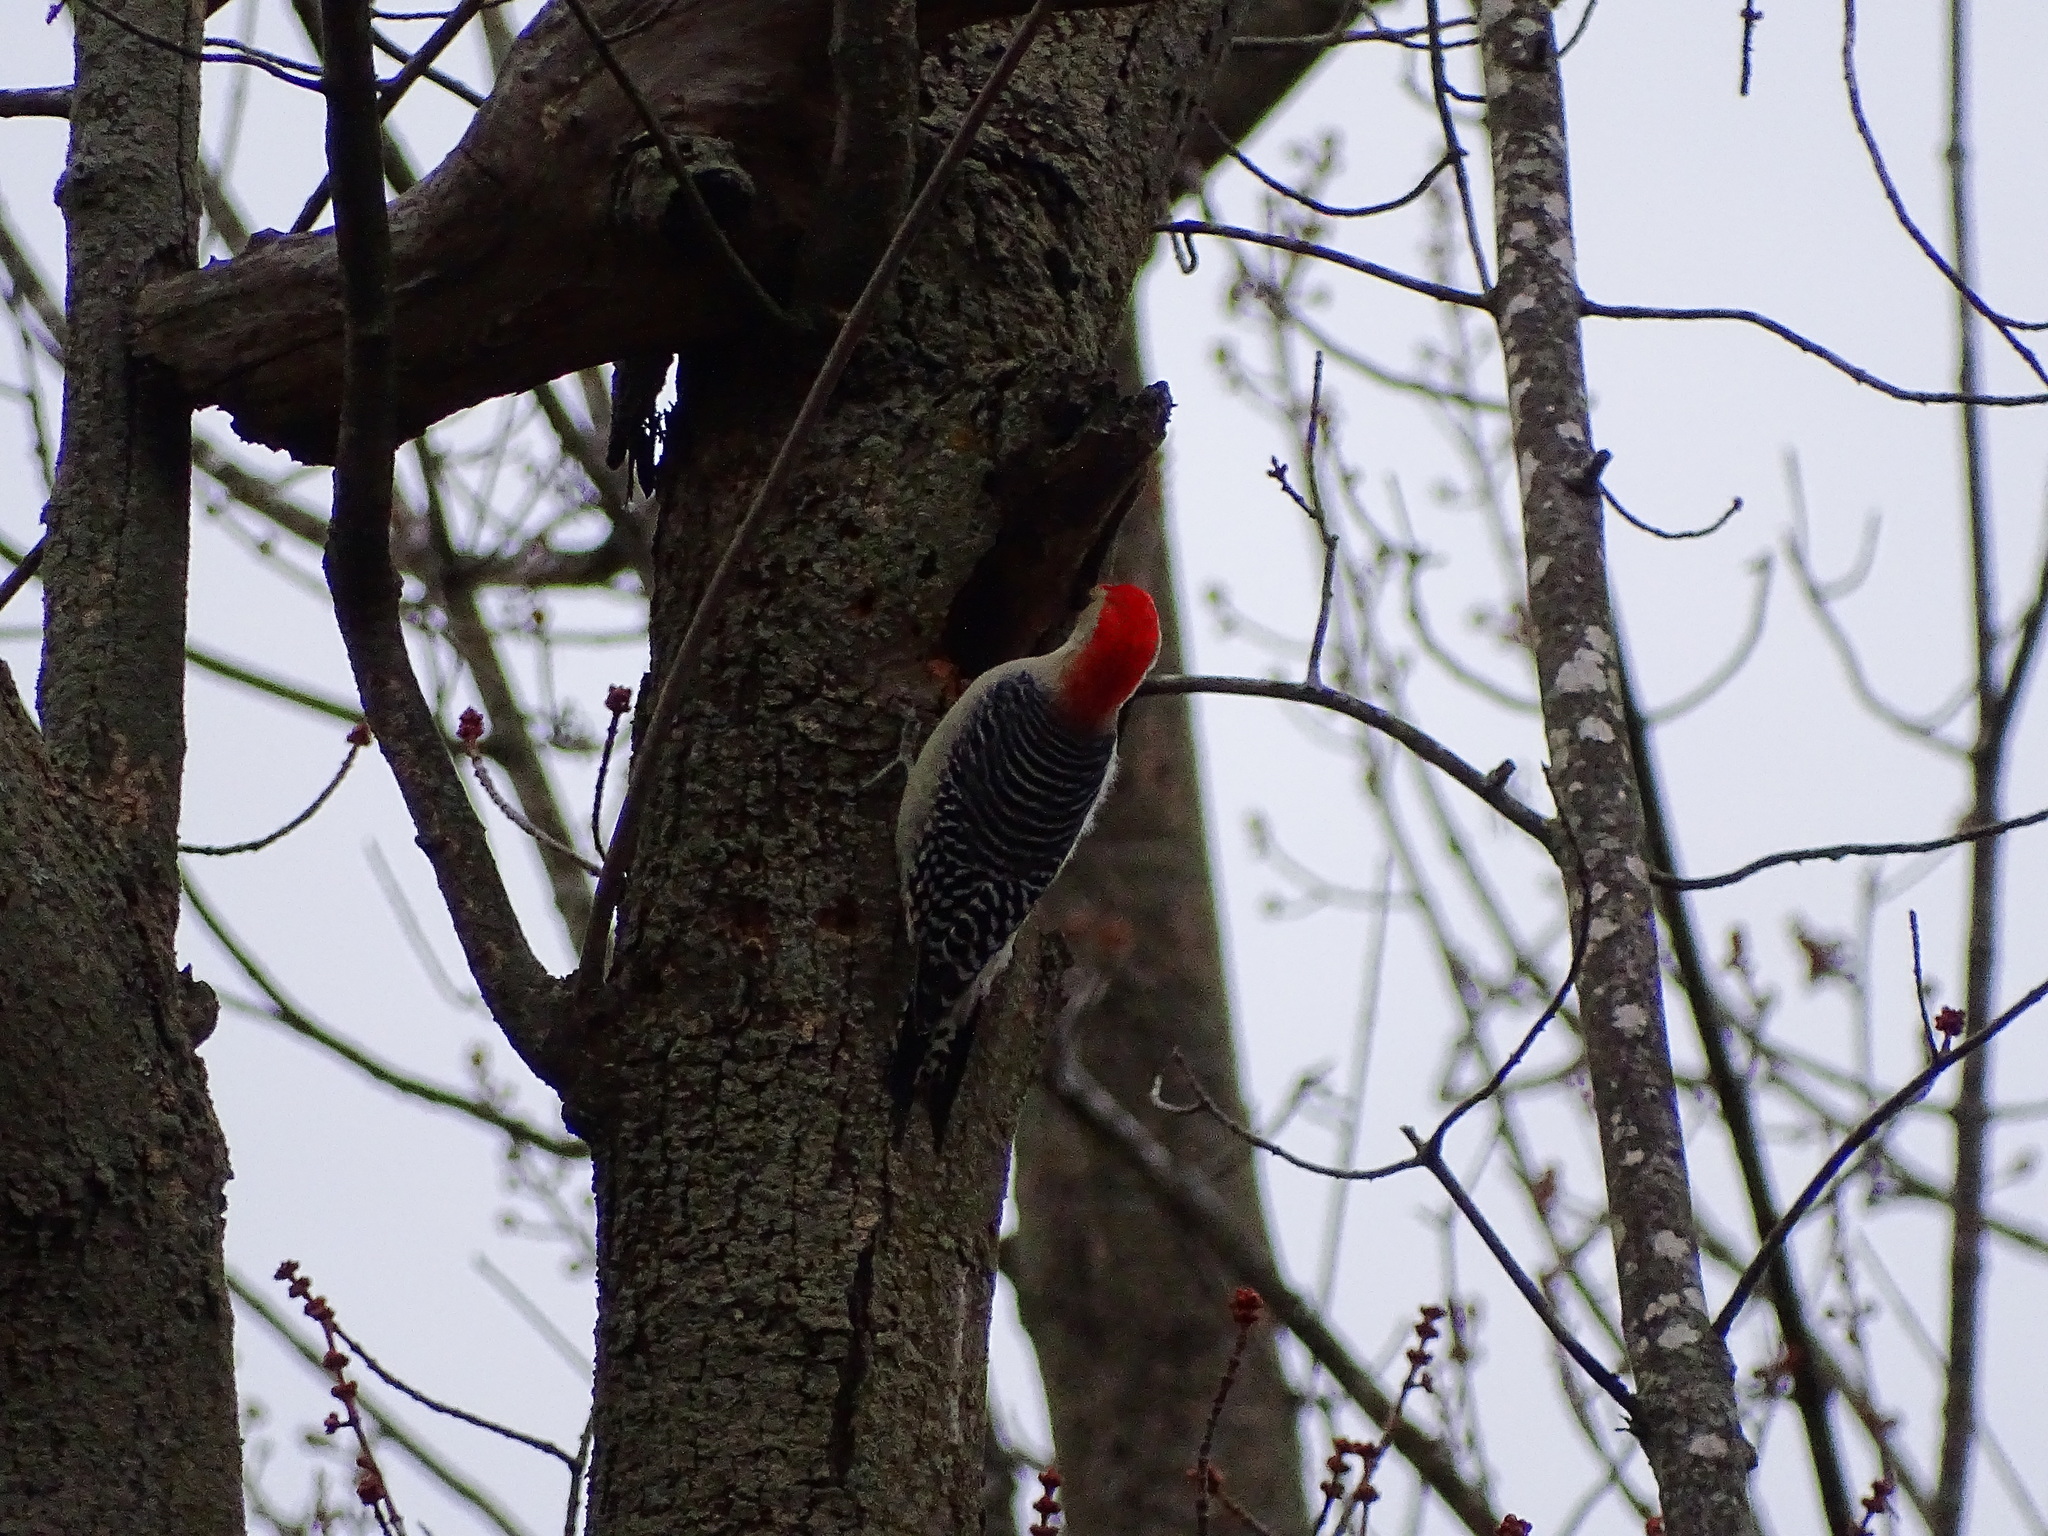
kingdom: Animalia
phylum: Chordata
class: Aves
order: Piciformes
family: Picidae
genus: Melanerpes
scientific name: Melanerpes carolinus
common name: Red-bellied woodpecker
